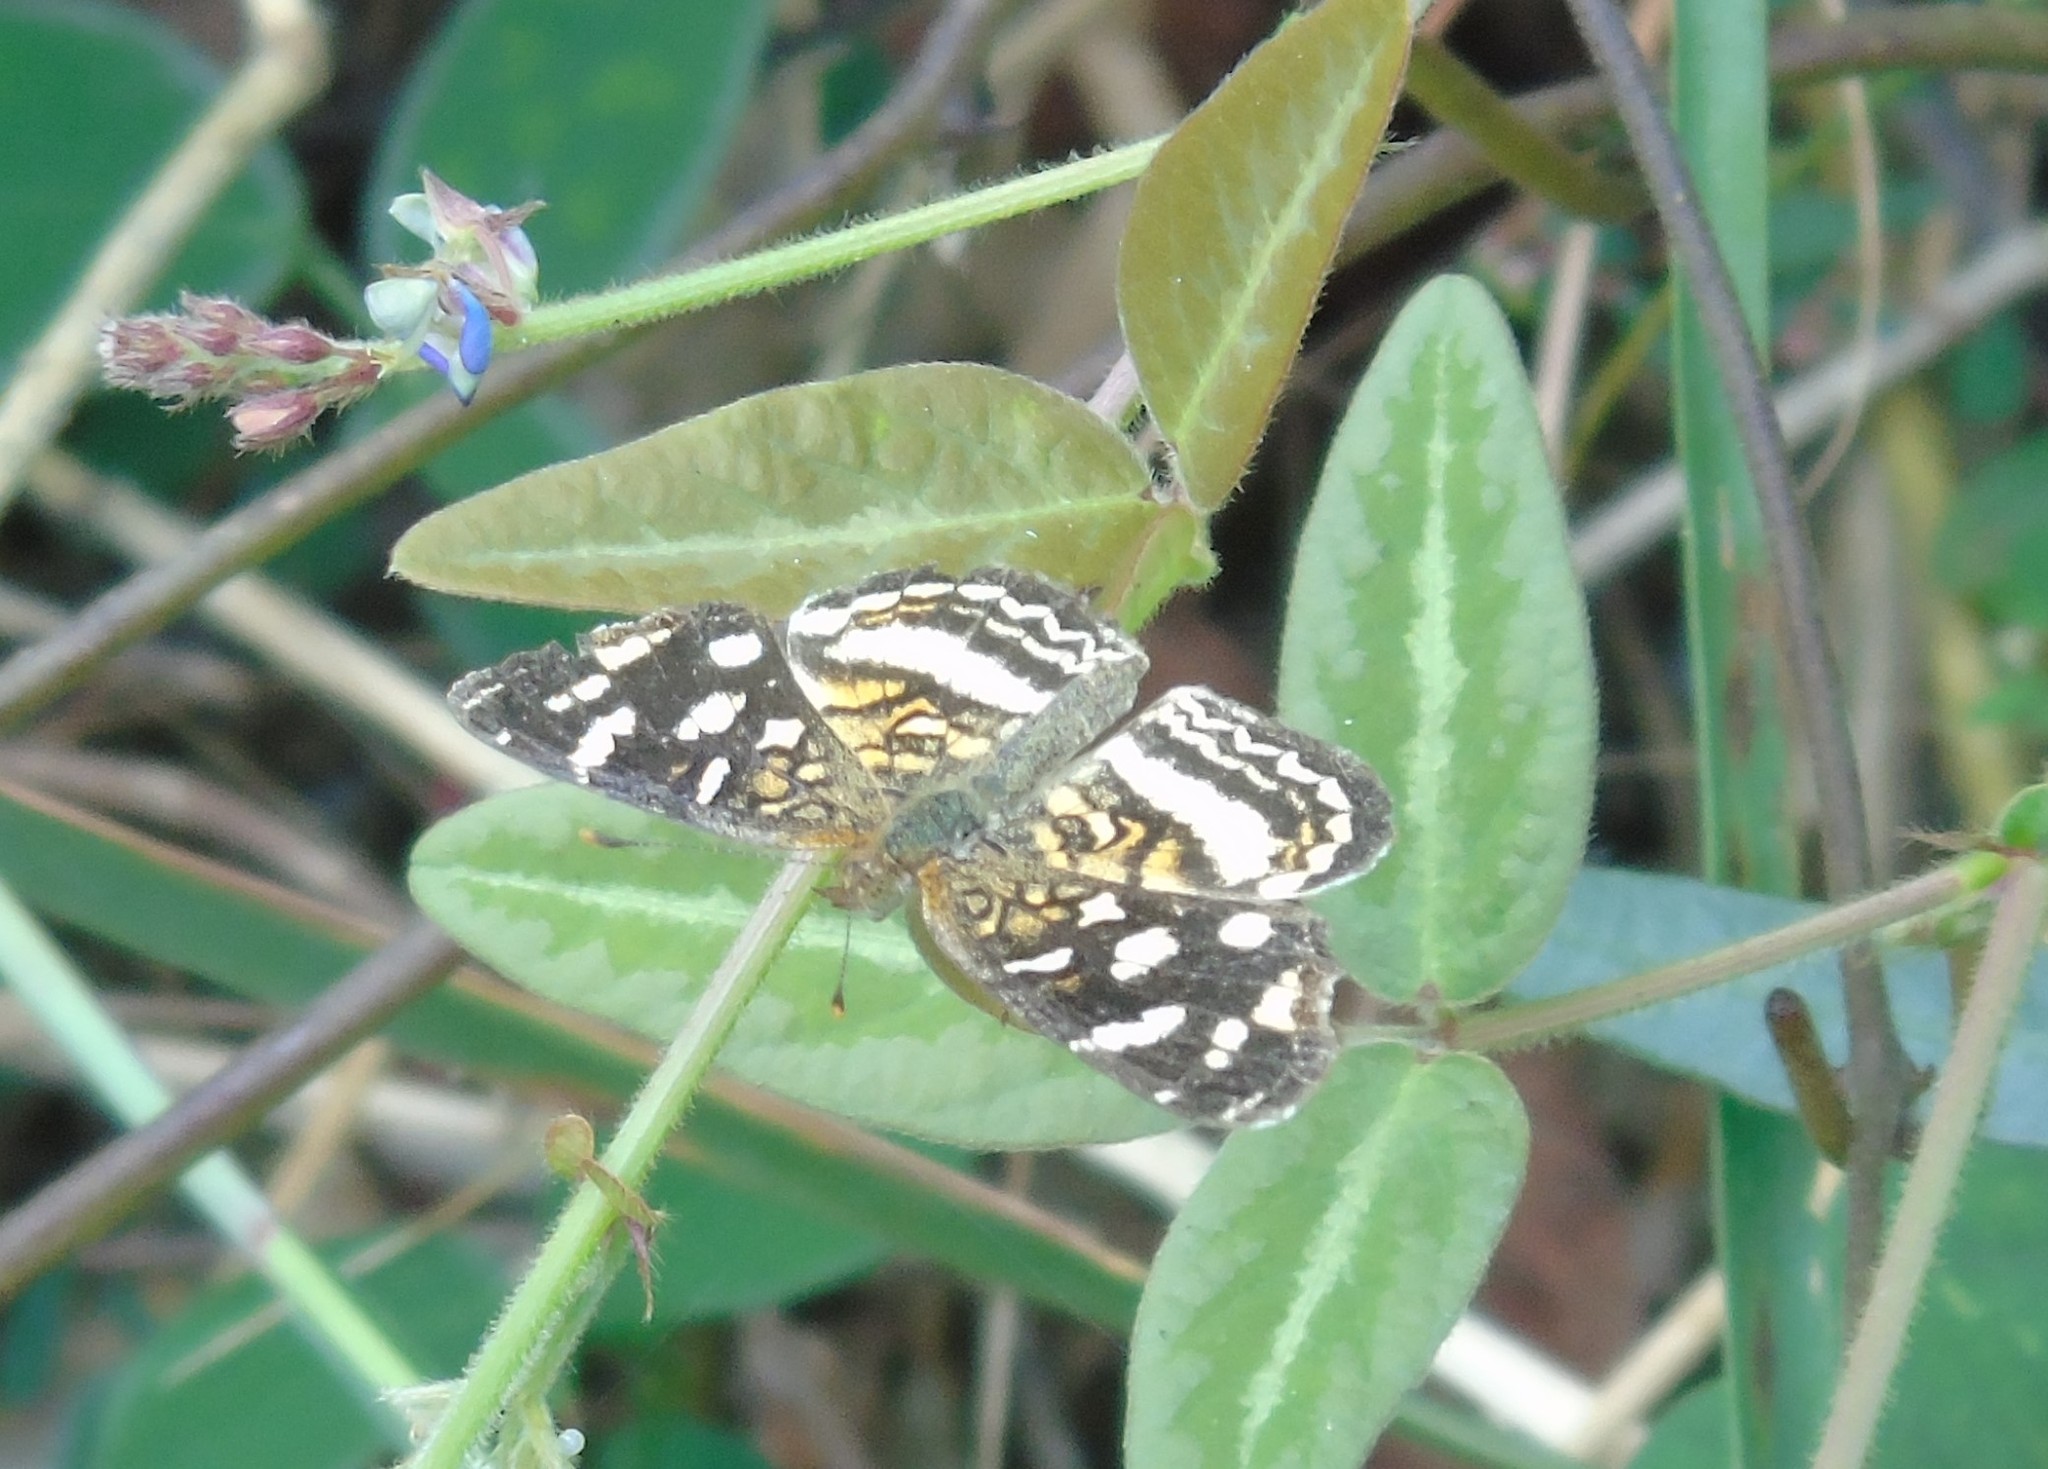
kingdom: Animalia
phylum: Arthropoda
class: Insecta
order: Lepidoptera
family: Nymphalidae
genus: Anthanassa
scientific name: Anthanassa tulcis
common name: Pale-banded crescent
